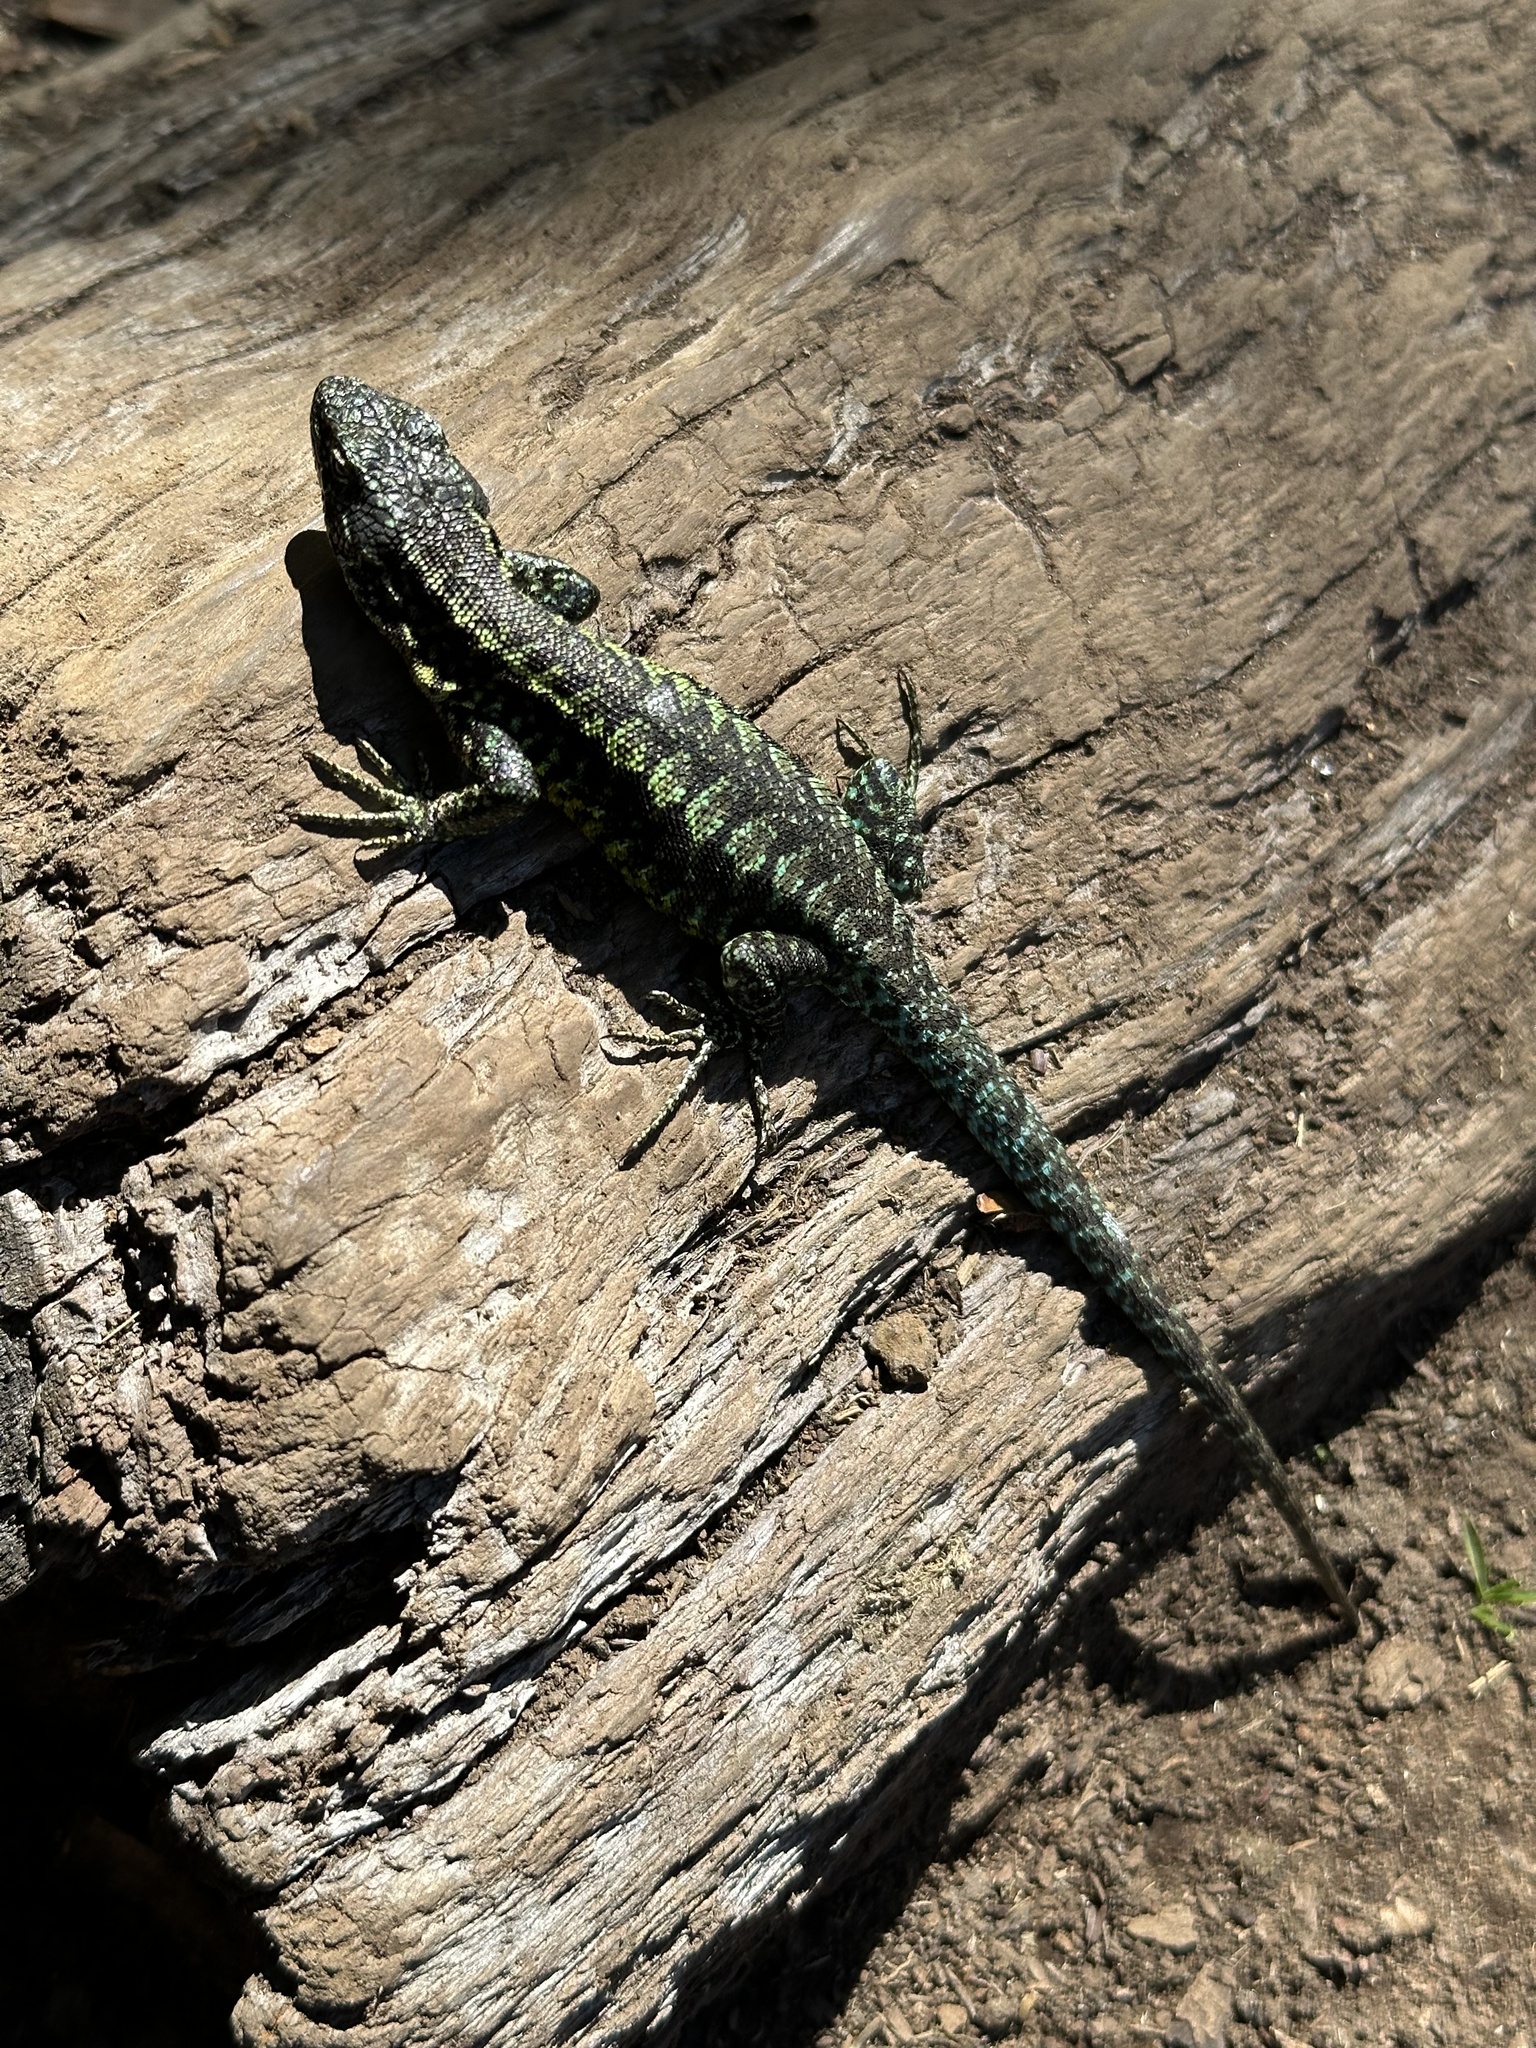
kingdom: Animalia
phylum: Chordata
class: Squamata
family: Liolaemidae
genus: Liolaemus
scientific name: Liolaemus pictus
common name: Painted tree iguana
